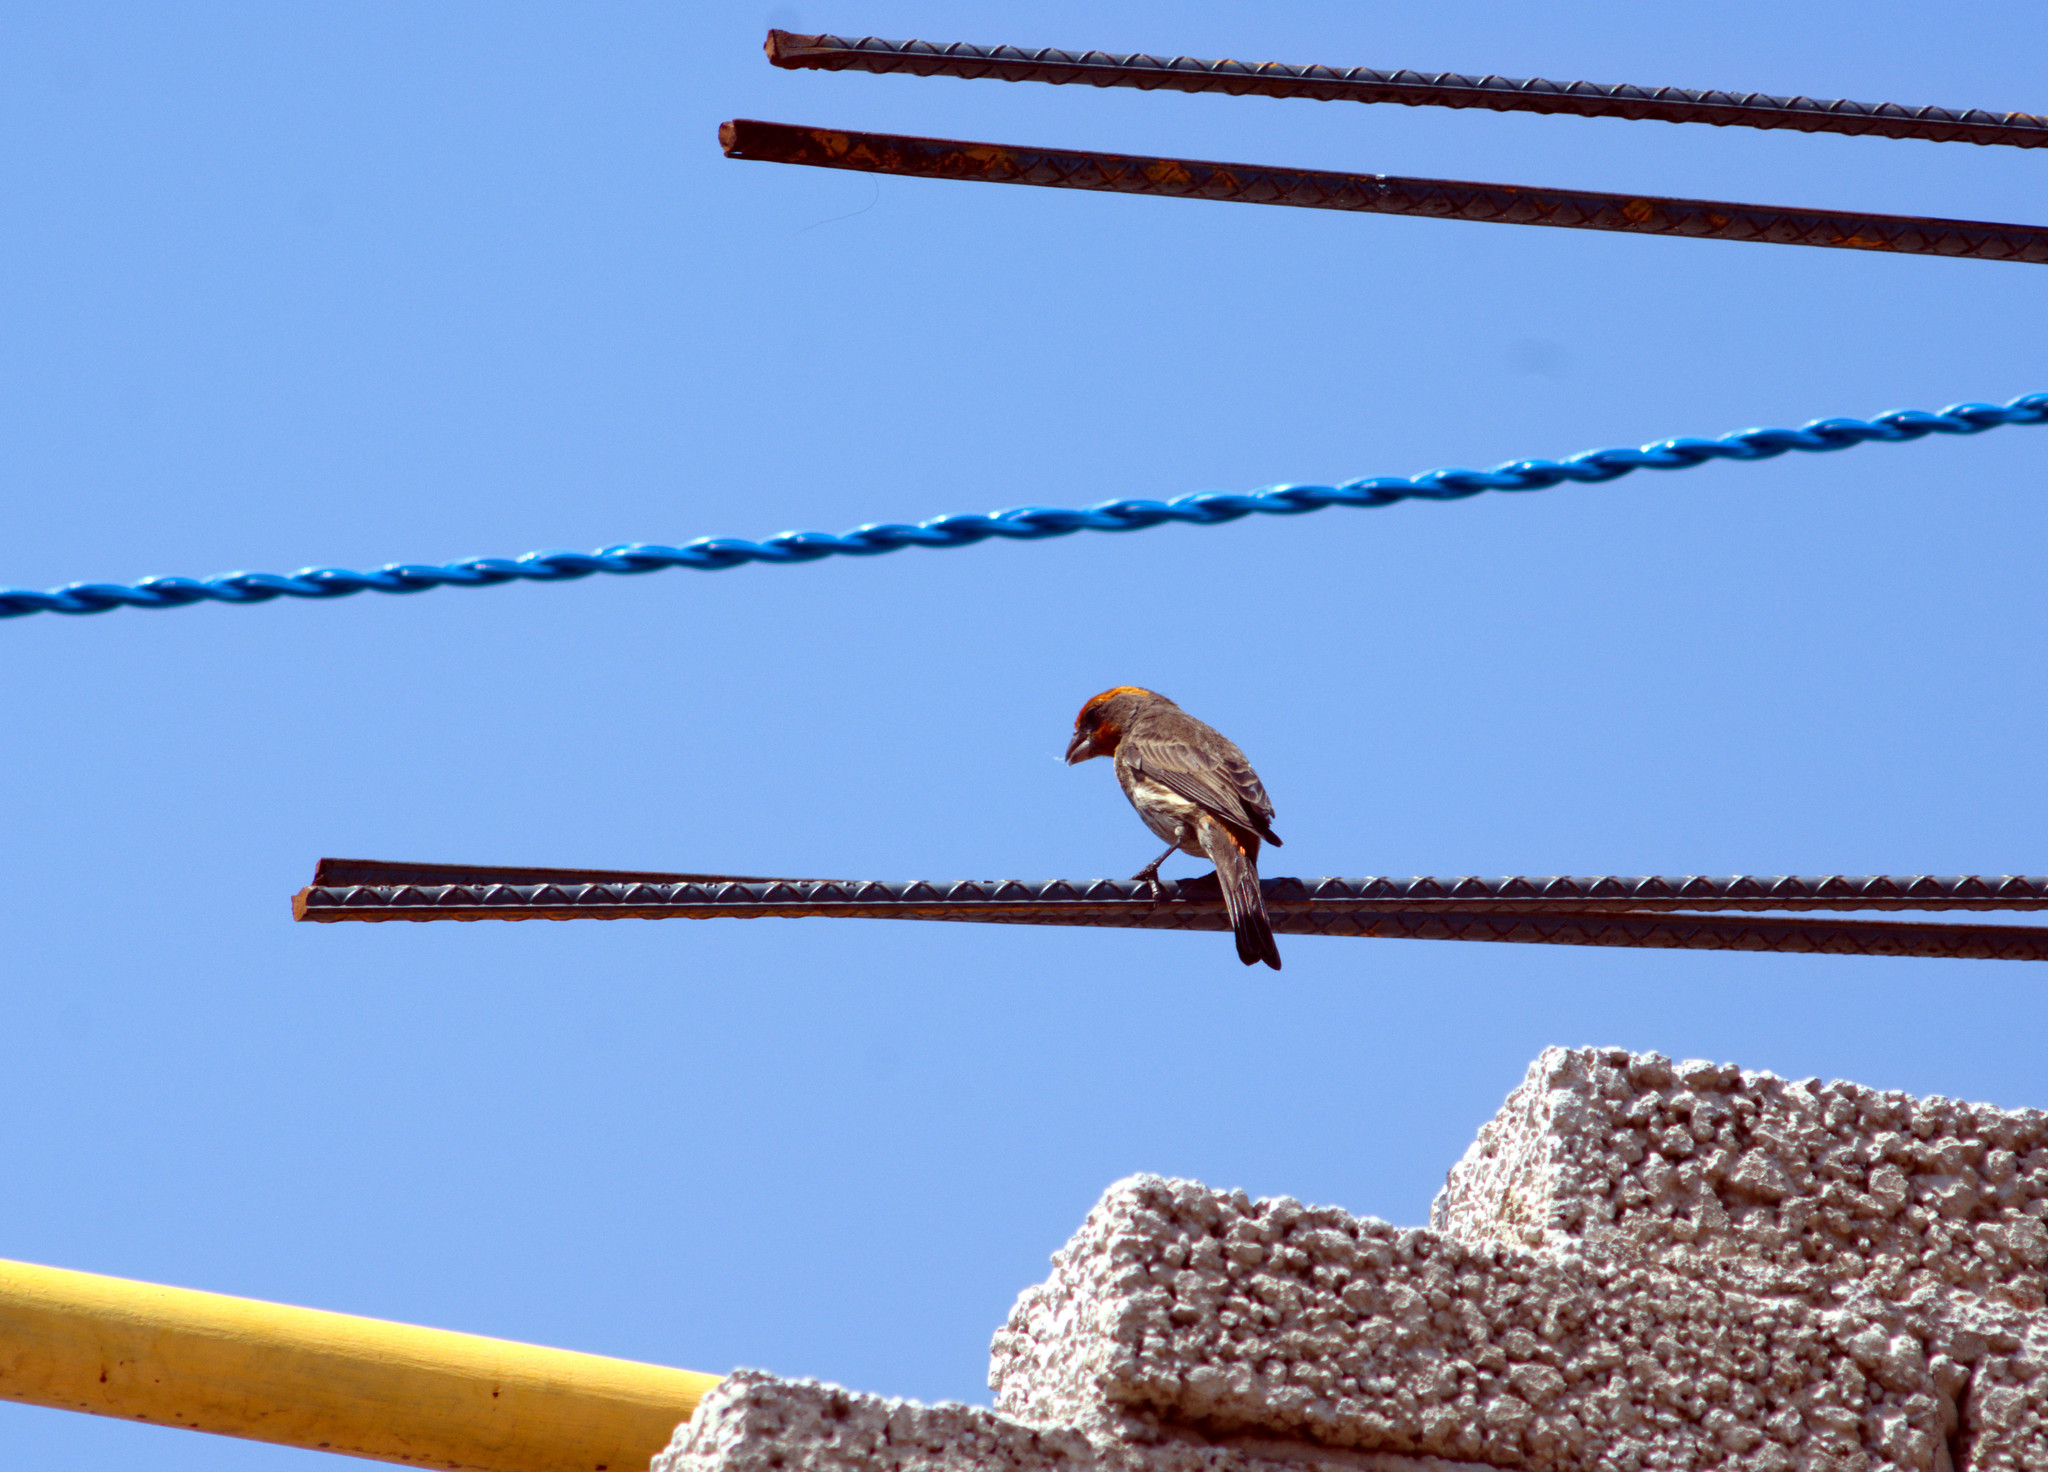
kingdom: Animalia
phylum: Chordata
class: Aves
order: Passeriformes
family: Fringillidae
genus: Haemorhous
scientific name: Haemorhous mexicanus
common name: House finch
